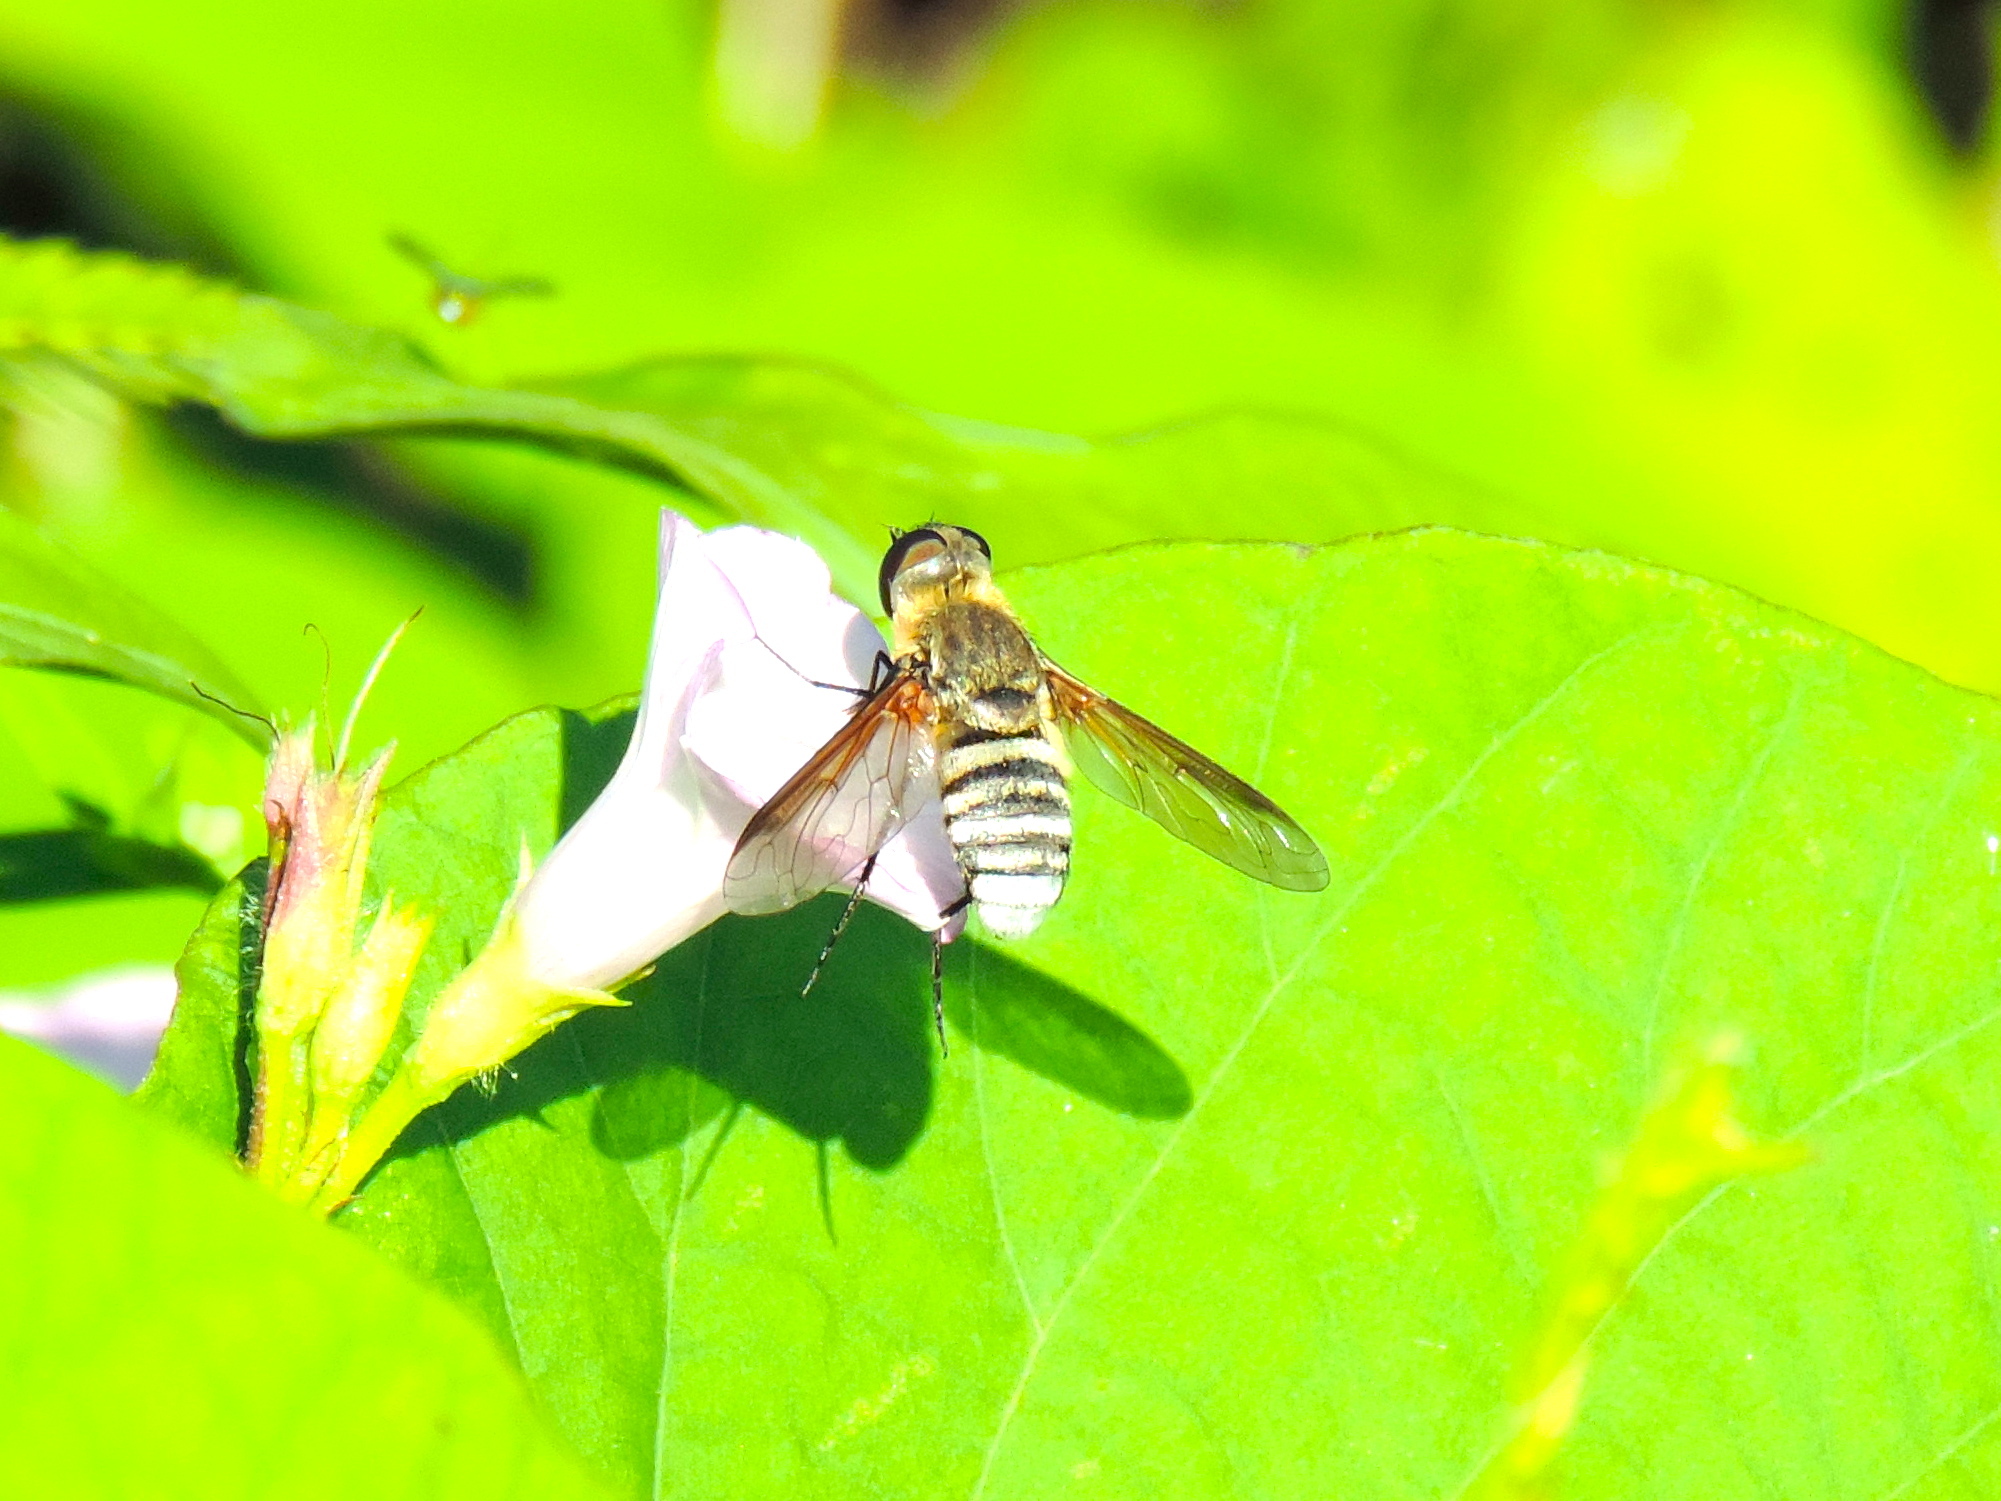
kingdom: Animalia
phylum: Arthropoda
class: Insecta
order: Diptera
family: Bombyliidae
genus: Exoprosopa
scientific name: Exoprosopa
